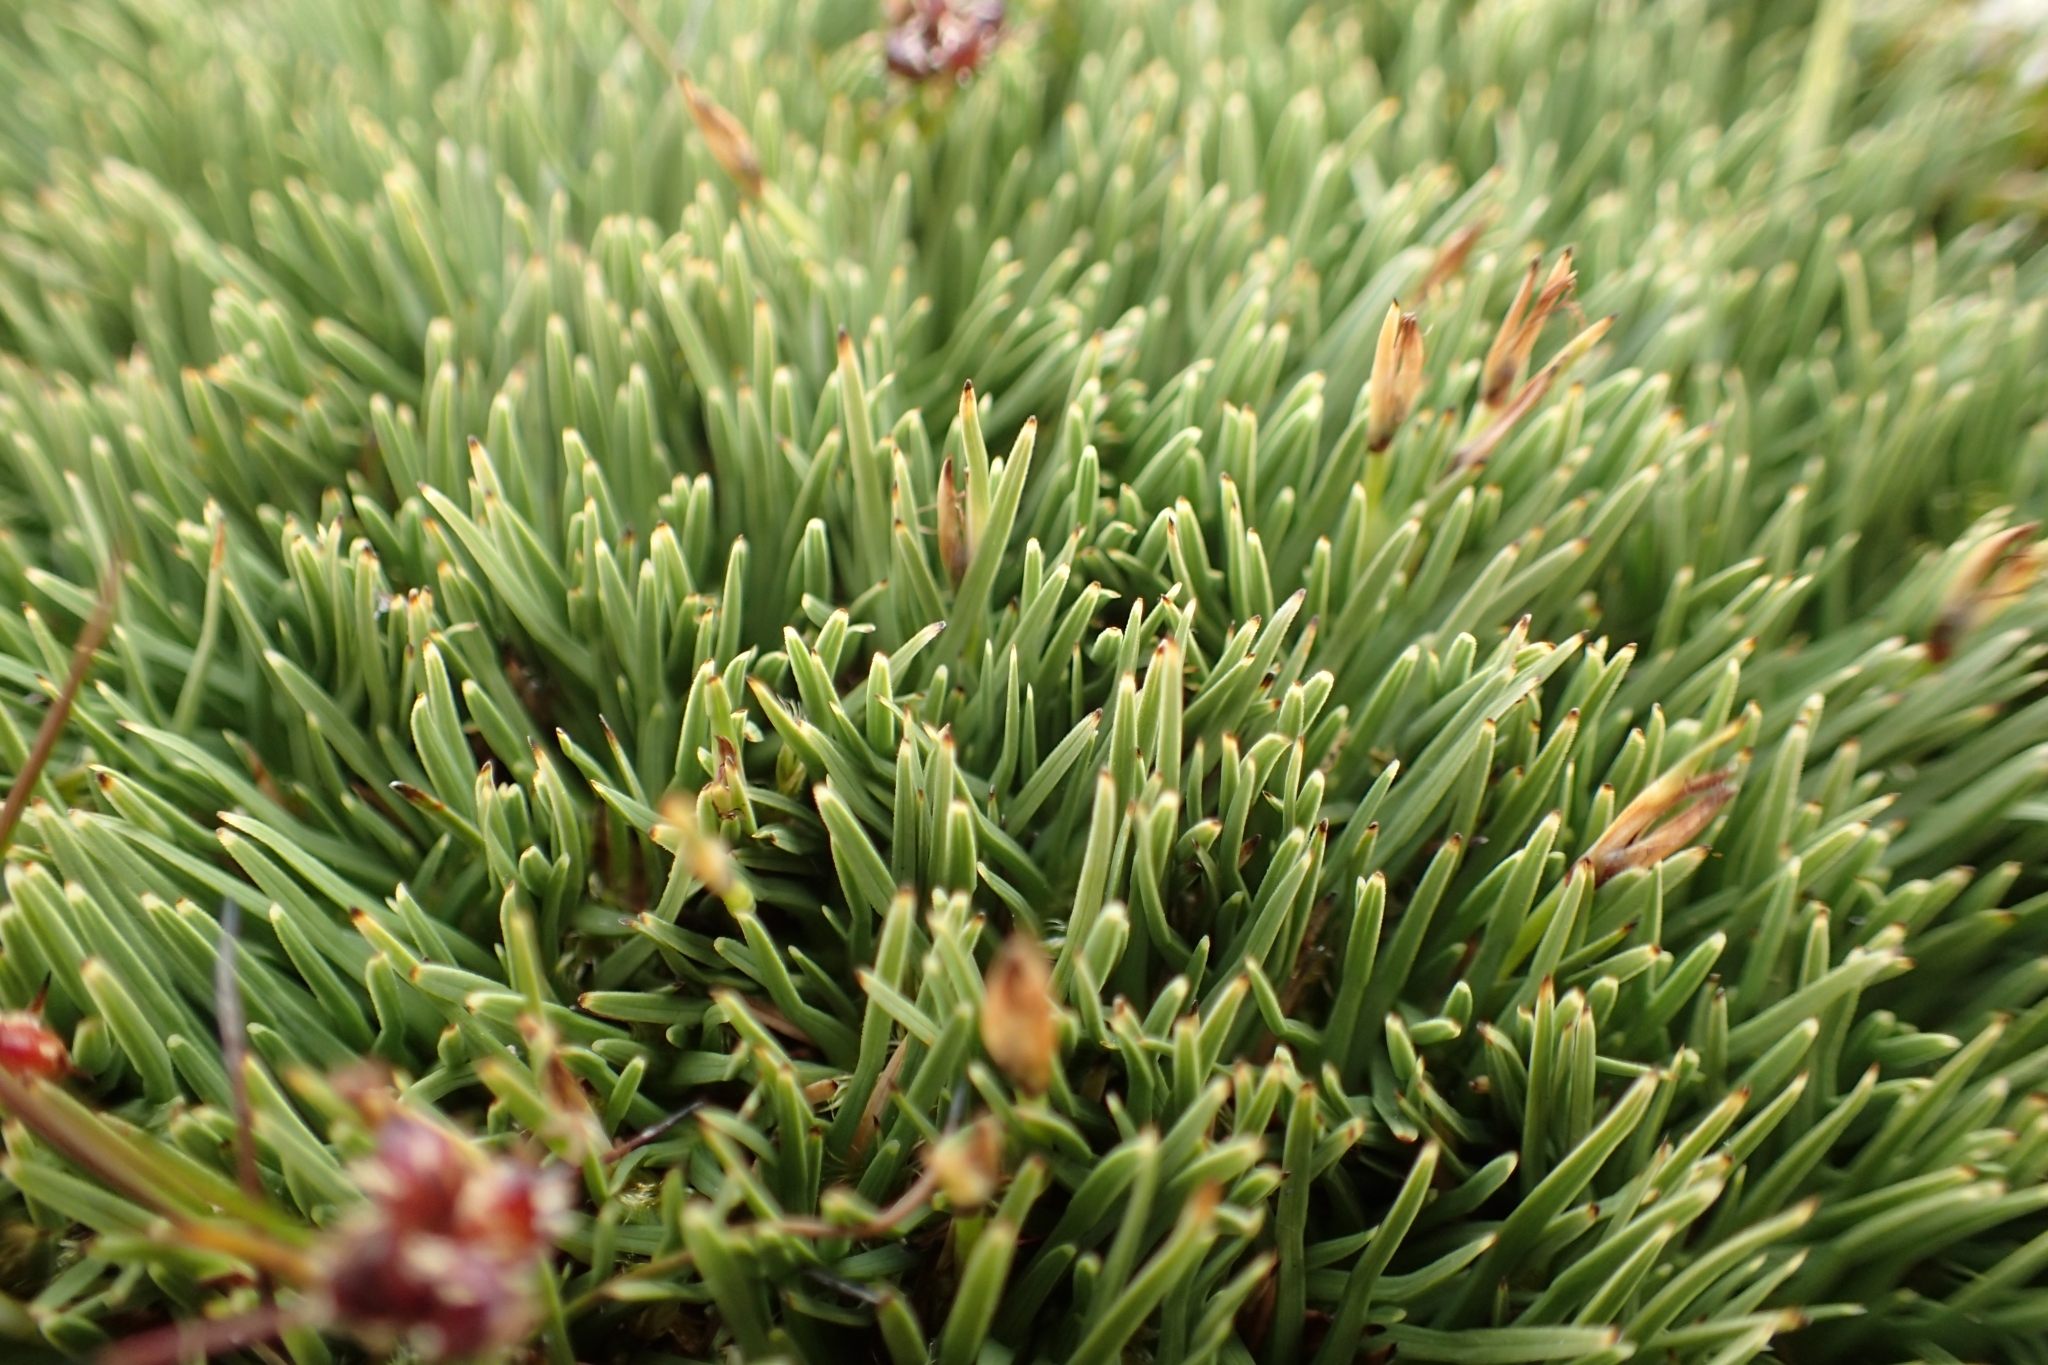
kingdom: Plantae
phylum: Tracheophyta
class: Liliopsida
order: Poales
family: Cyperaceae
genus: Oreobolus
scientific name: Oreobolus pectinatus
